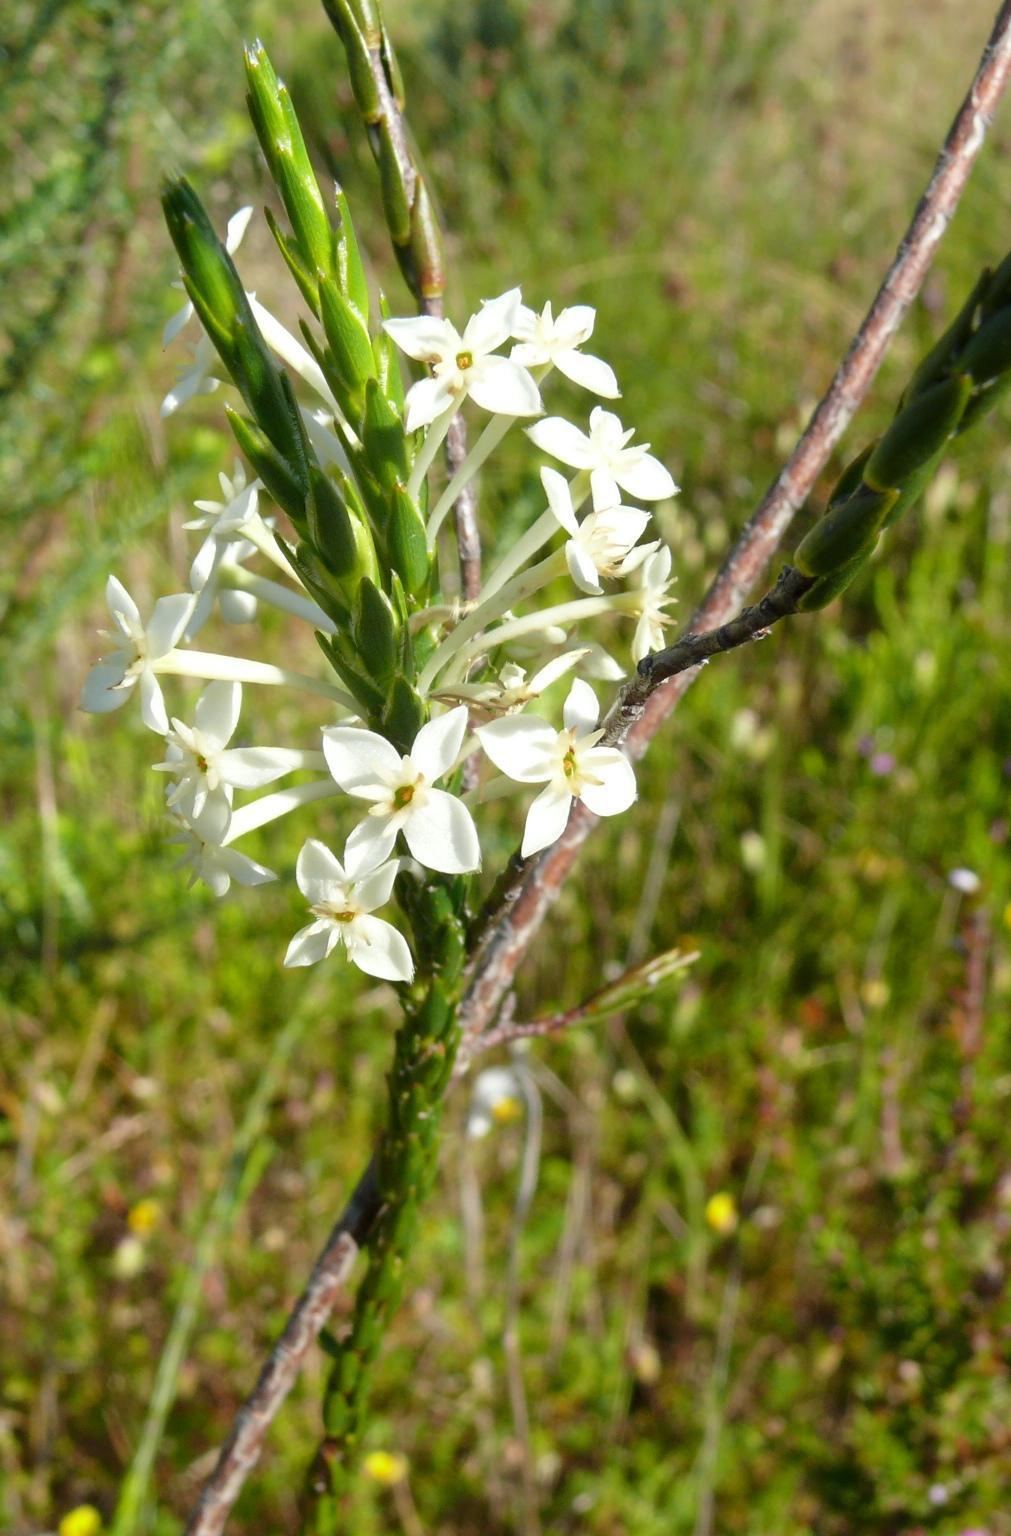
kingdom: Plantae
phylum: Tracheophyta
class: Magnoliopsida
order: Malvales
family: Thymelaeaceae
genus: Struthiola
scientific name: Struthiola myrsinites
